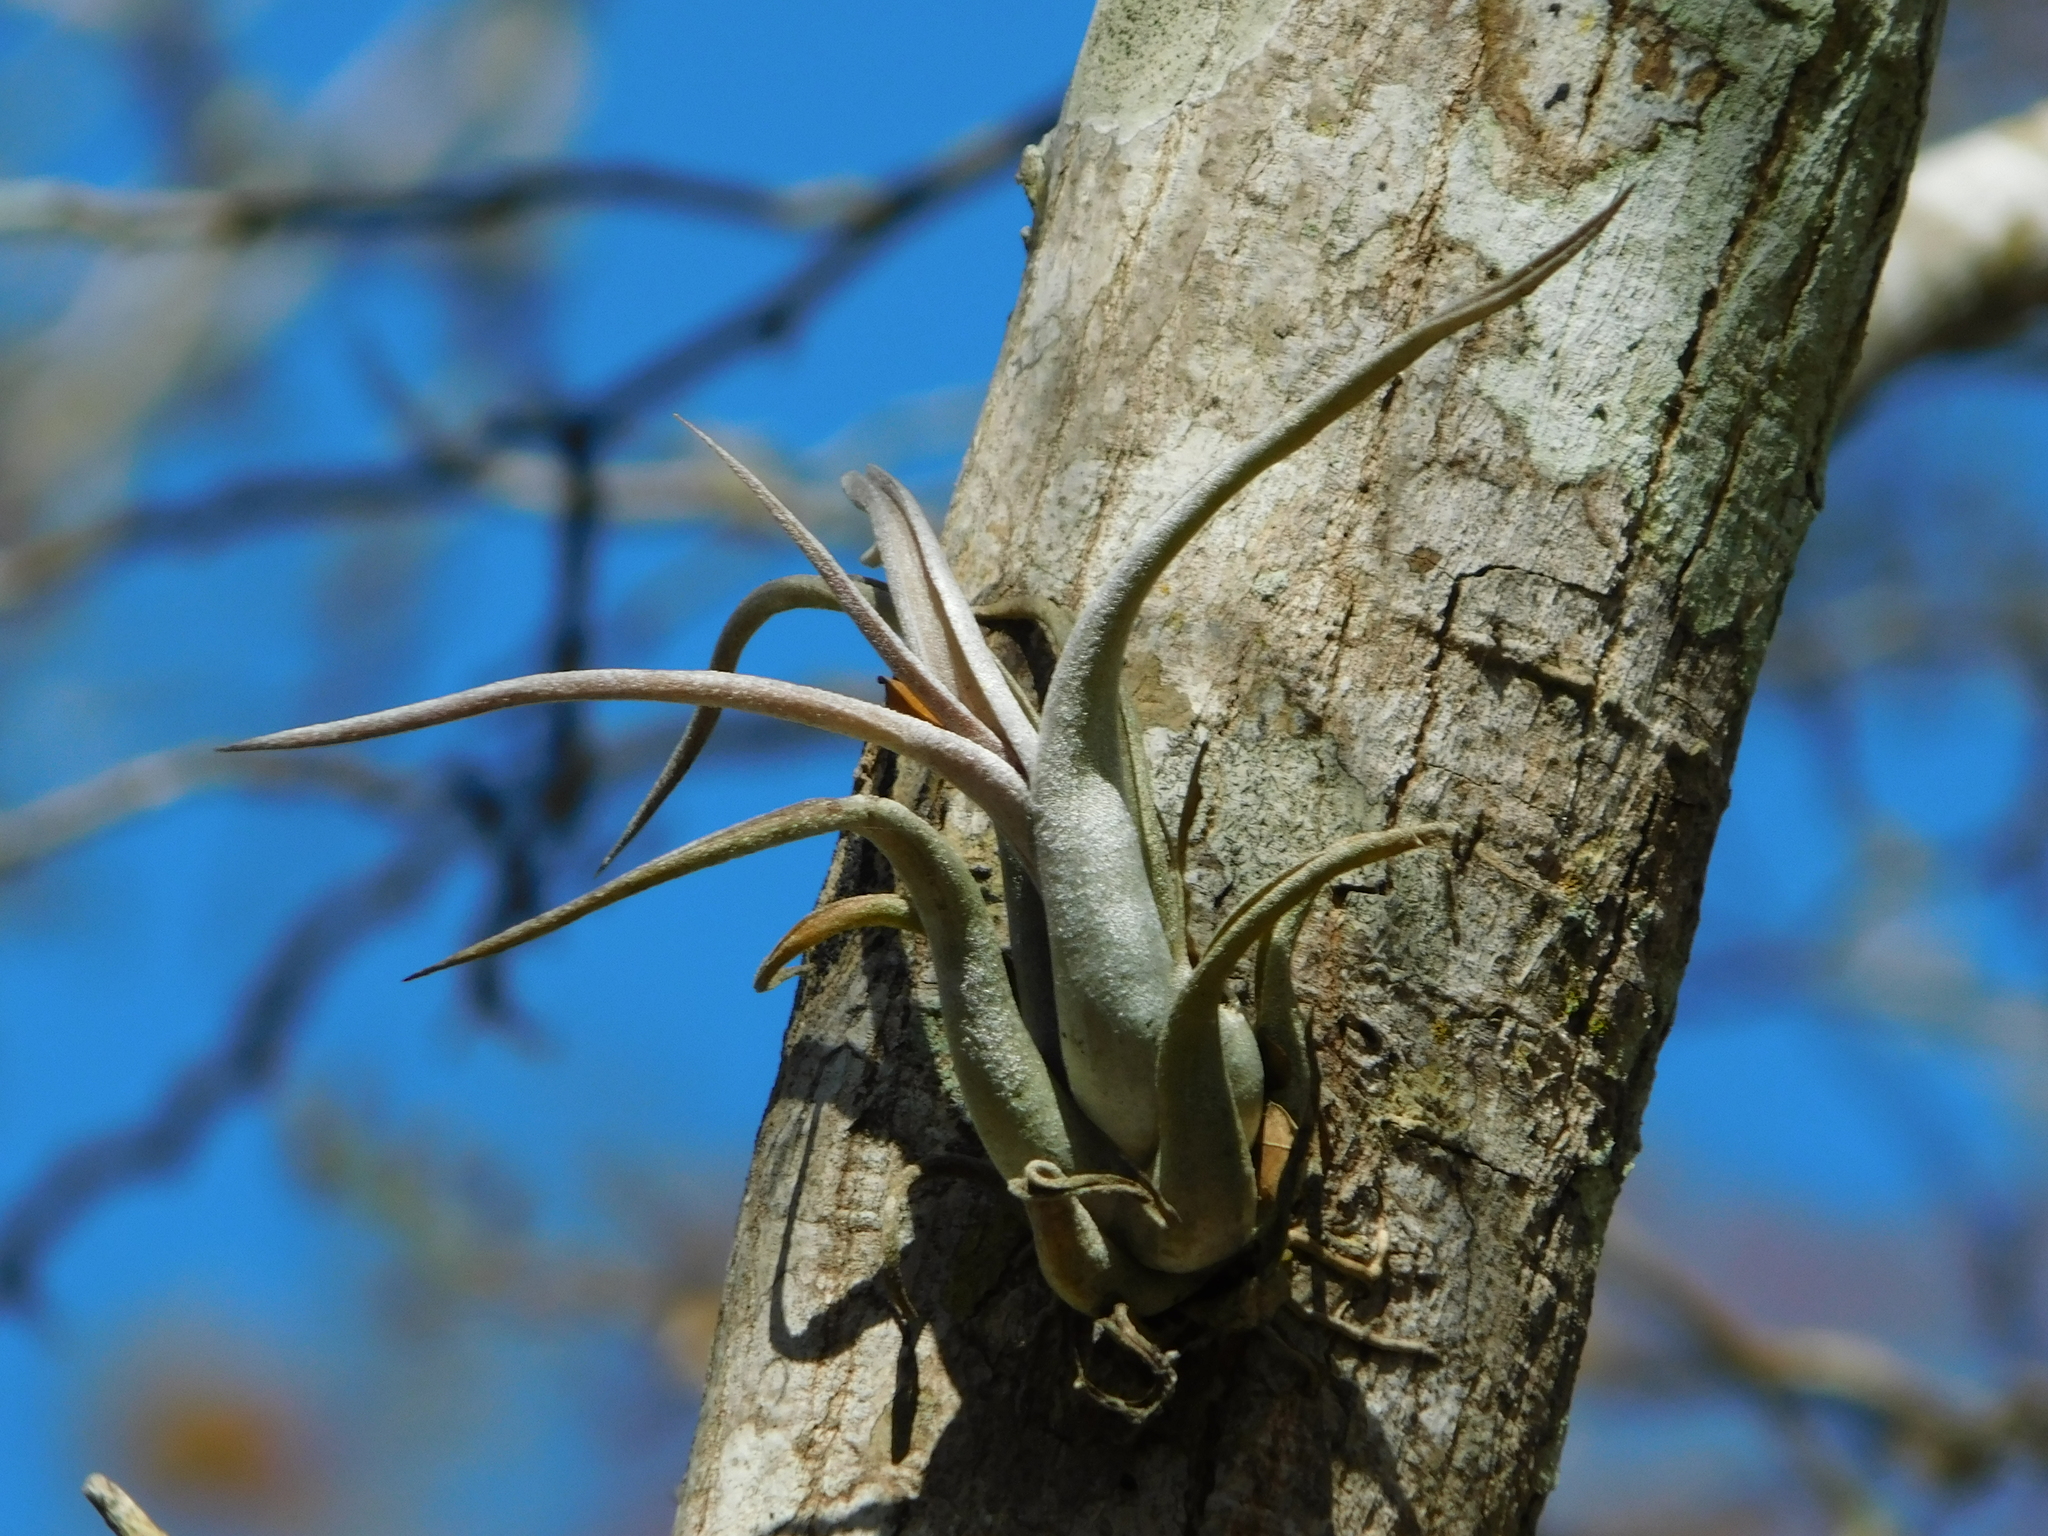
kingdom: Plantae
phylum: Tracheophyta
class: Liliopsida
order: Poales
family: Bromeliaceae
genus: Tillandsia
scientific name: Tillandsia paucifolia
